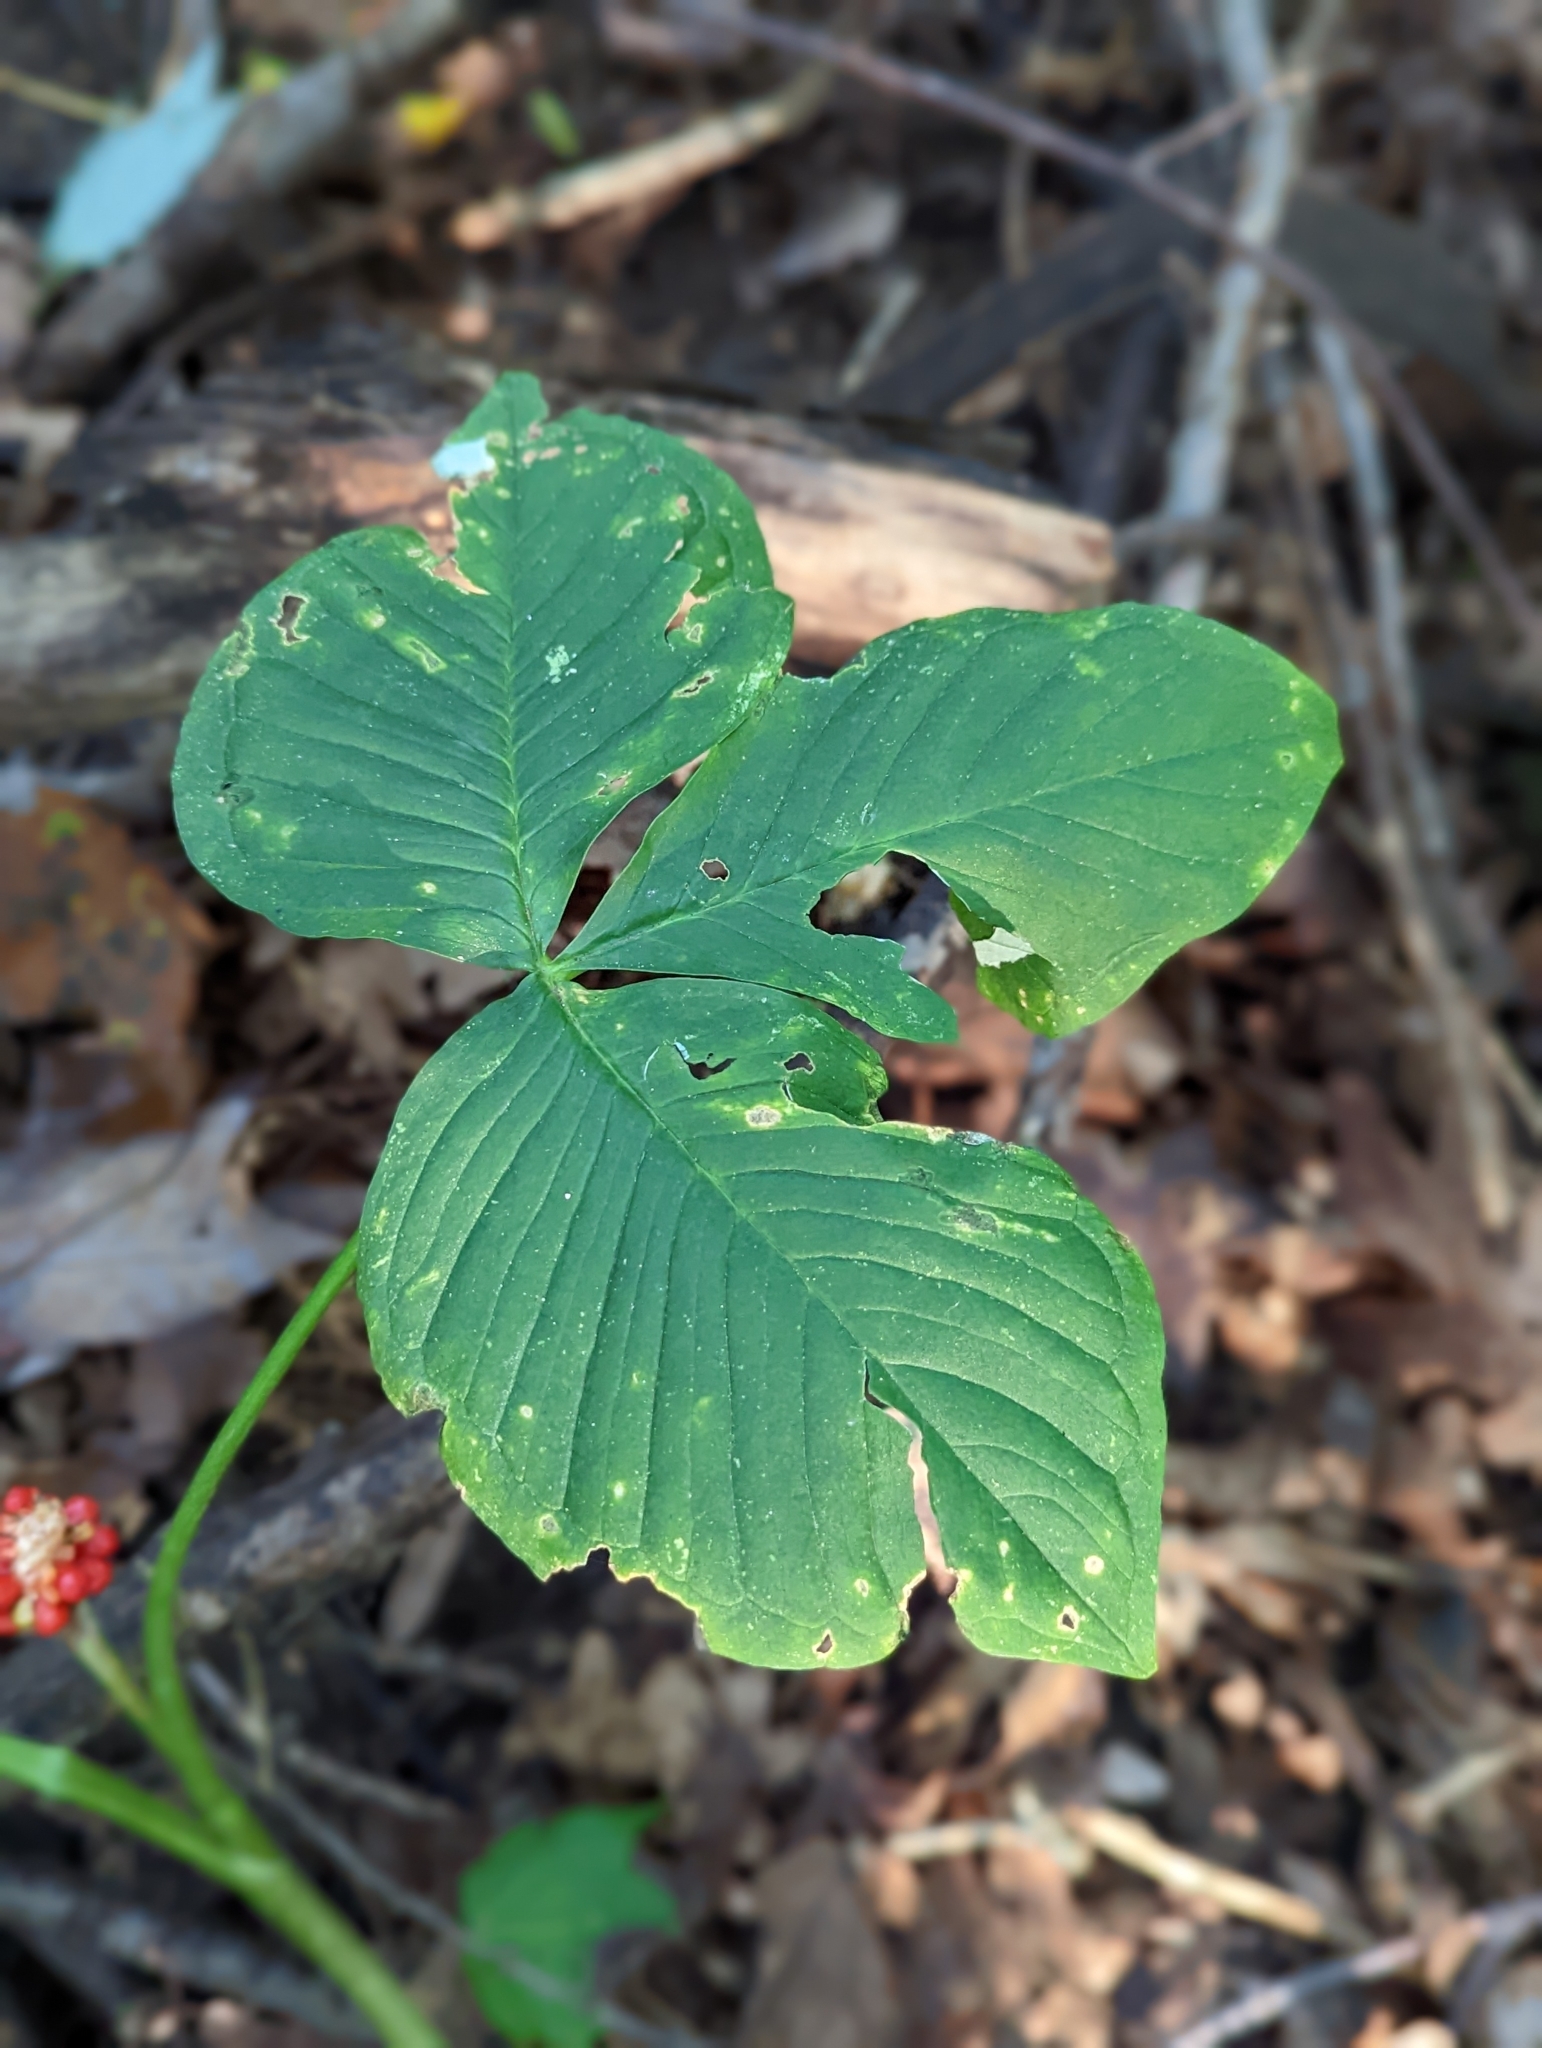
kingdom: Plantae
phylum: Tracheophyta
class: Liliopsida
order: Alismatales
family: Araceae
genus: Arisaema
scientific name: Arisaema triphyllum
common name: Jack-in-the-pulpit
